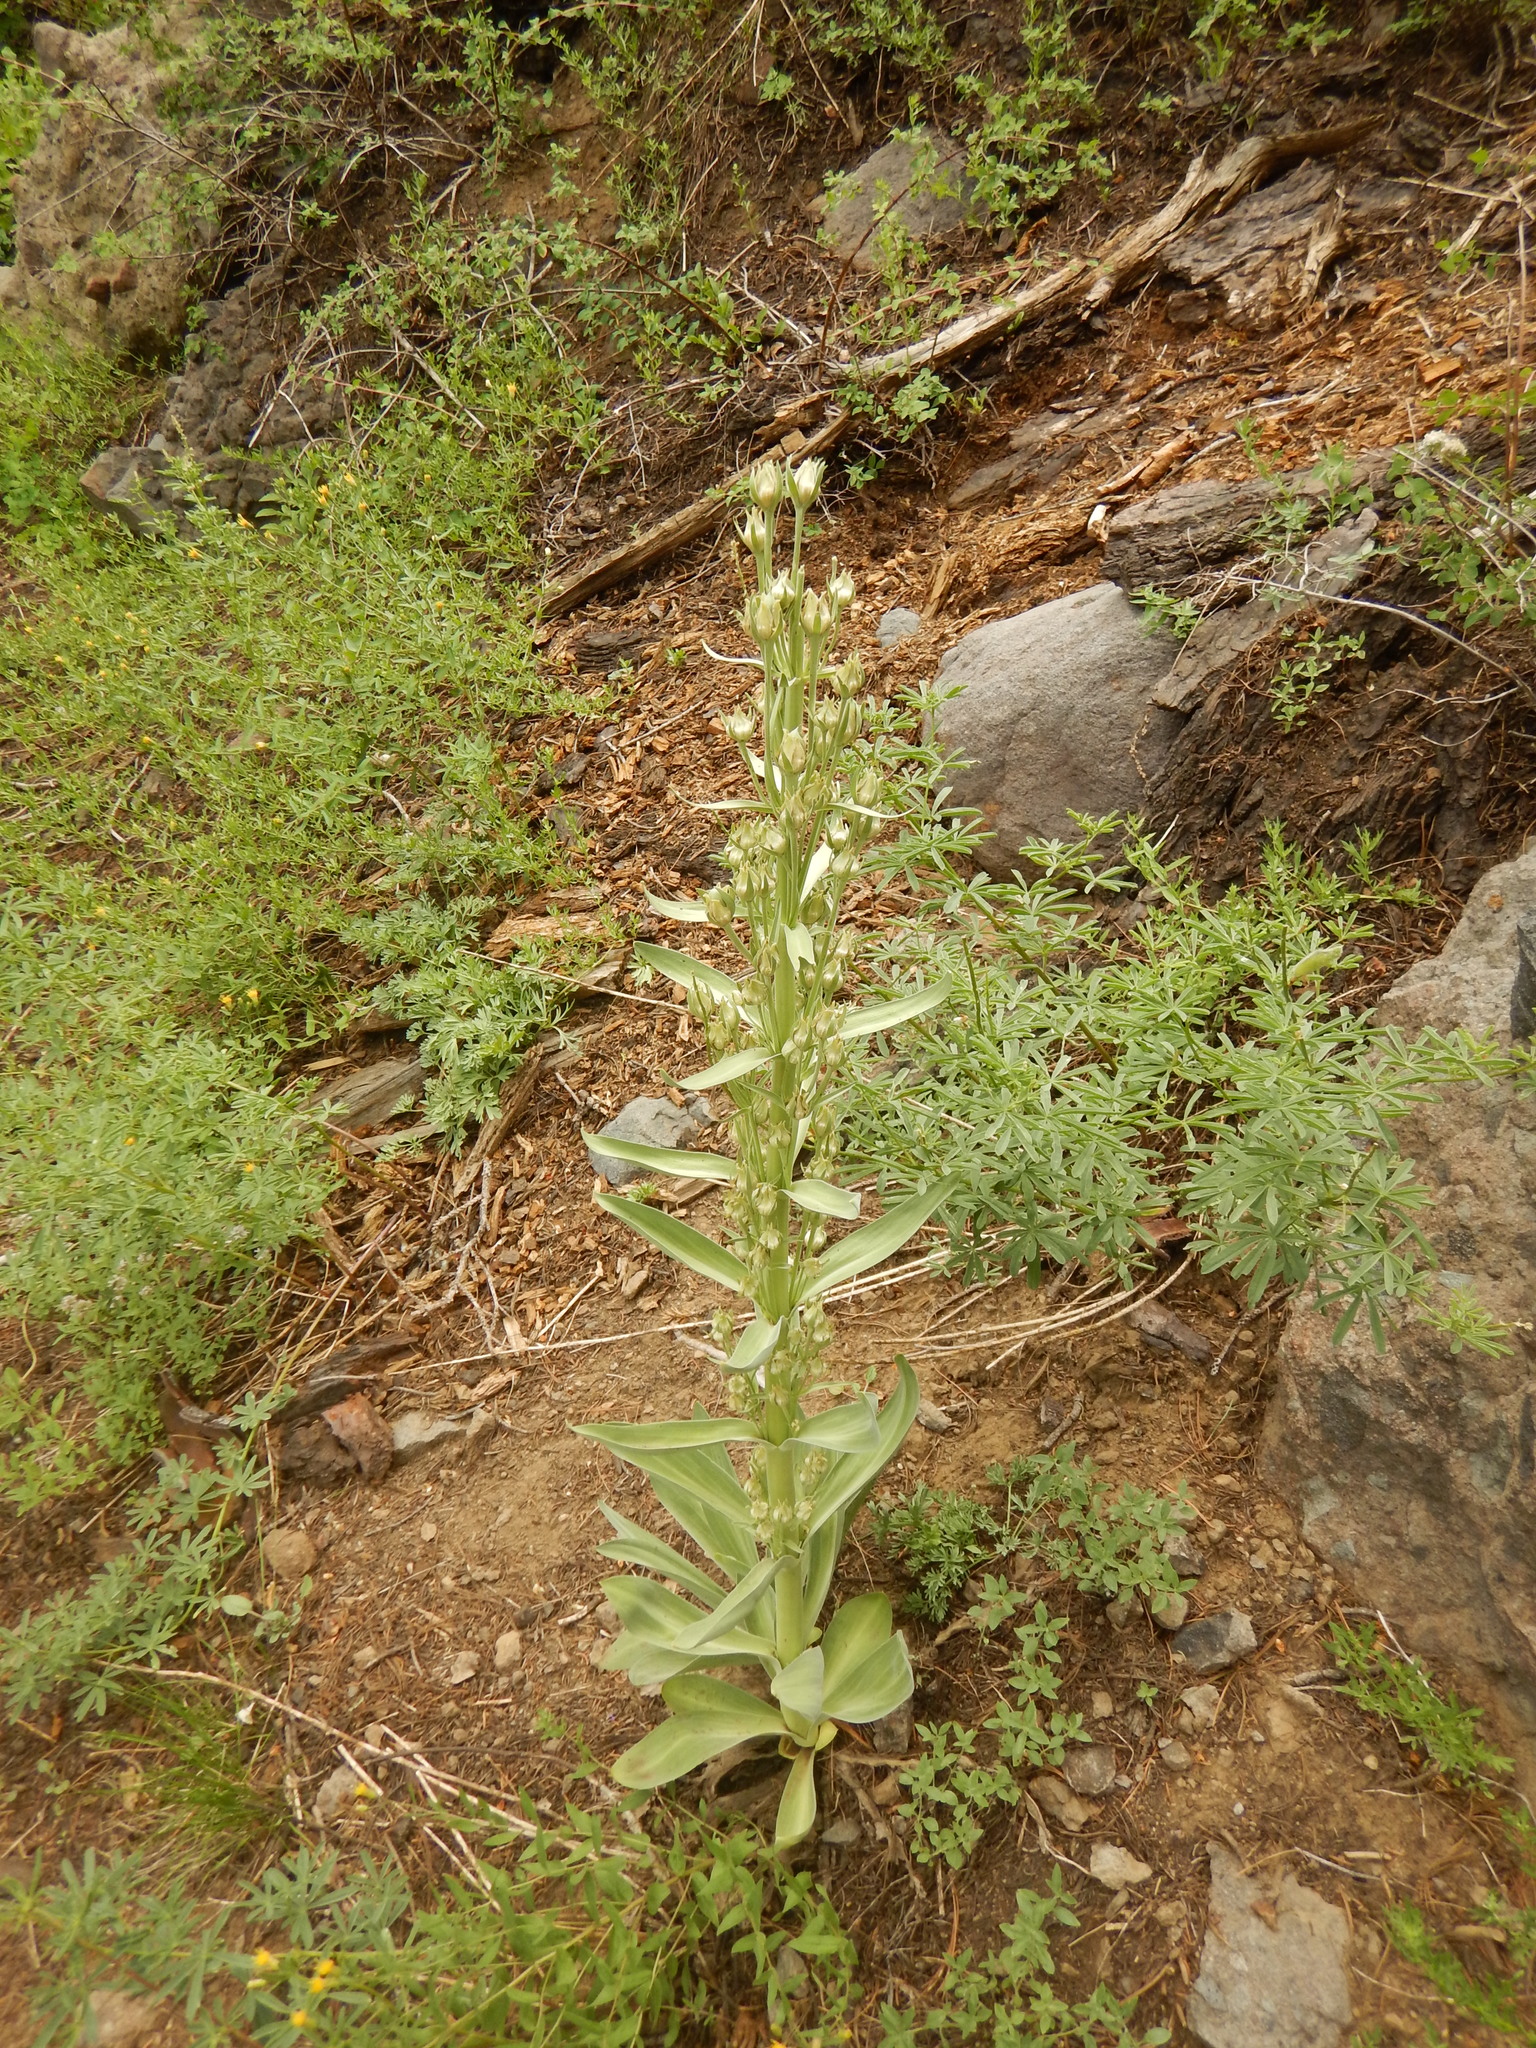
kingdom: Plantae
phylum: Tracheophyta
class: Magnoliopsida
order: Gentianales
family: Gentianaceae
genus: Frasera
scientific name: Frasera speciosa
